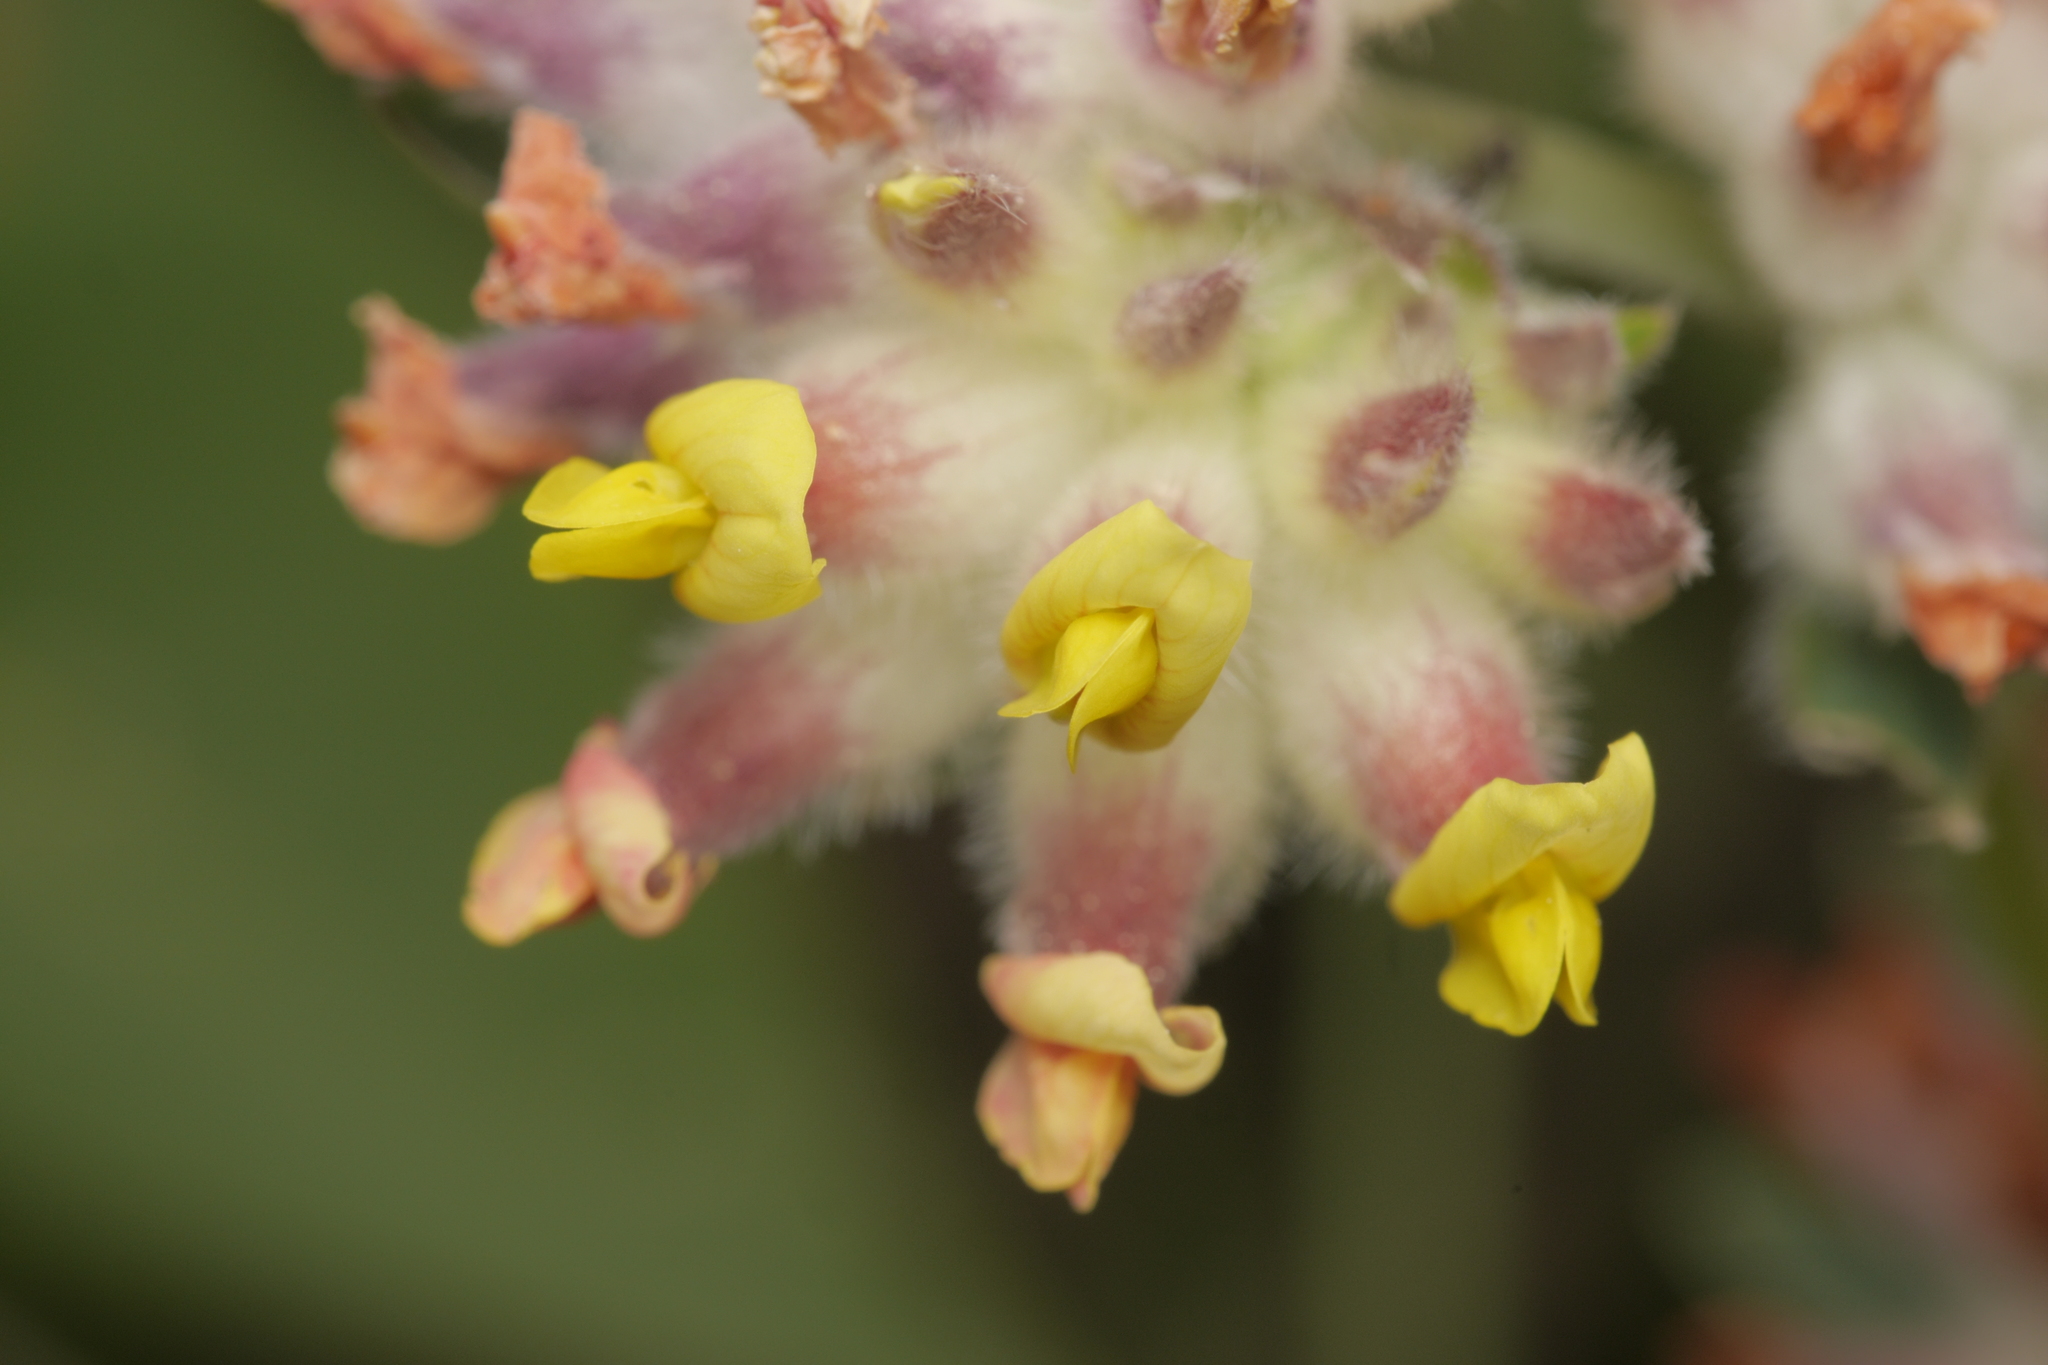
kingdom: Plantae
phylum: Tracheophyta
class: Magnoliopsida
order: Fabales
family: Fabaceae
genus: Anthyllis
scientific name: Anthyllis vulneraria
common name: Kidney vetch
